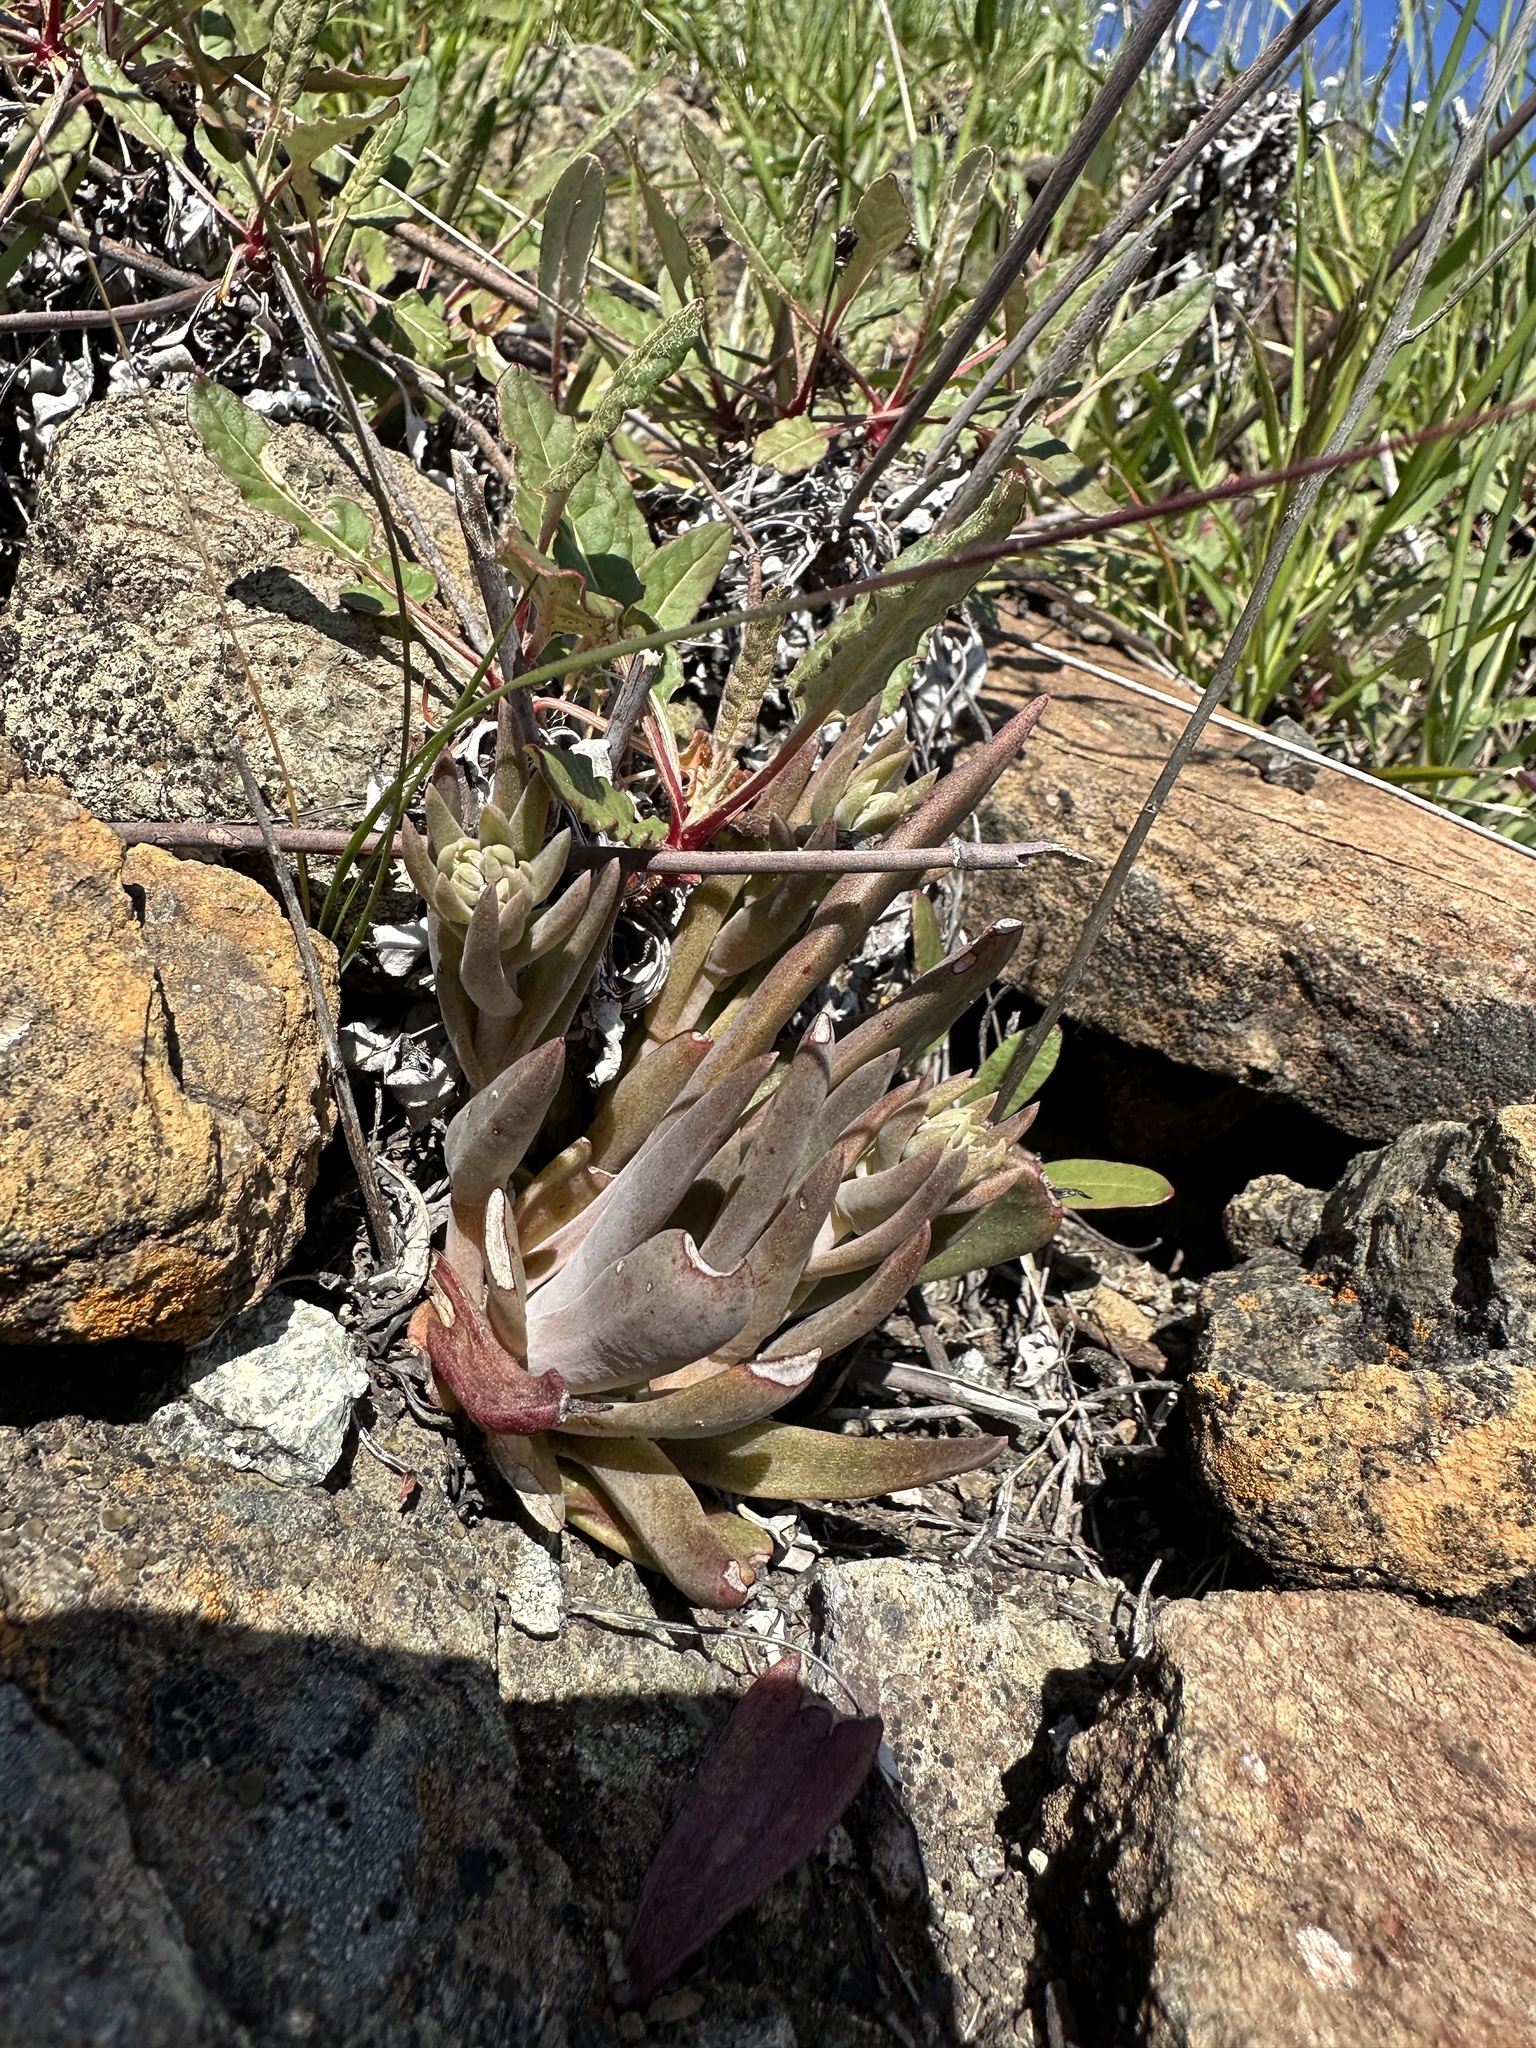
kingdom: Plantae
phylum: Tracheophyta
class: Magnoliopsida
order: Saxifragales
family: Crassulaceae
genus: Dudleya
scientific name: Dudleya abramsii
